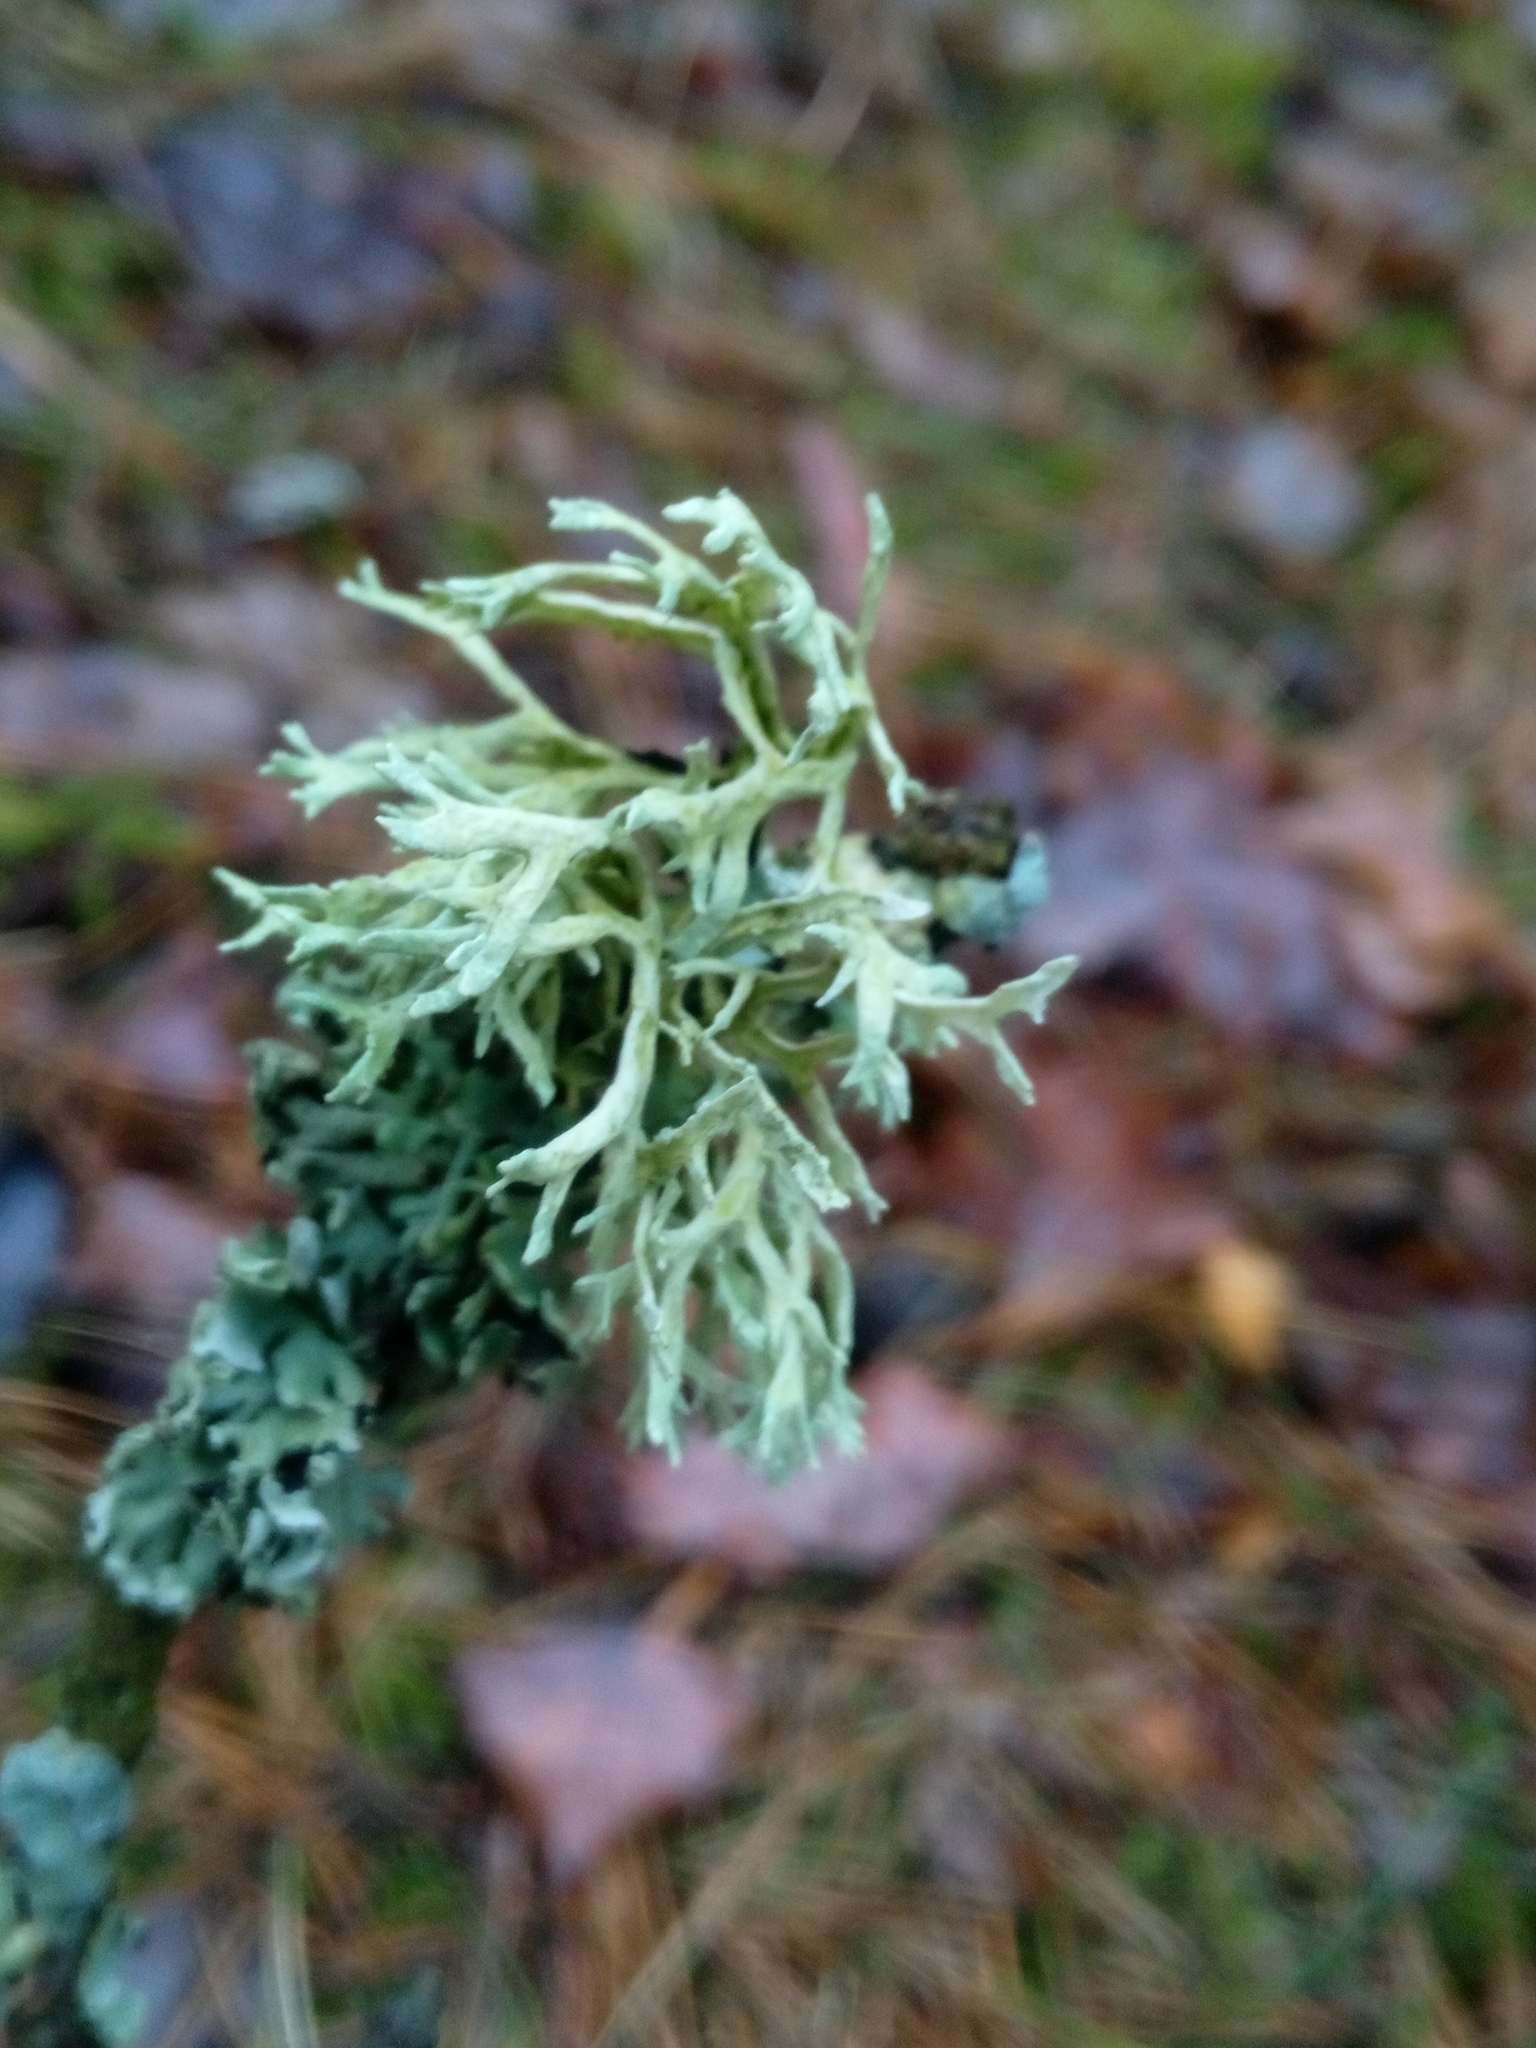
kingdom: Fungi
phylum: Ascomycota
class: Lecanoromycetes
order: Lecanorales
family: Parmeliaceae
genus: Evernia
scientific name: Evernia prunastri
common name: Oak moss
